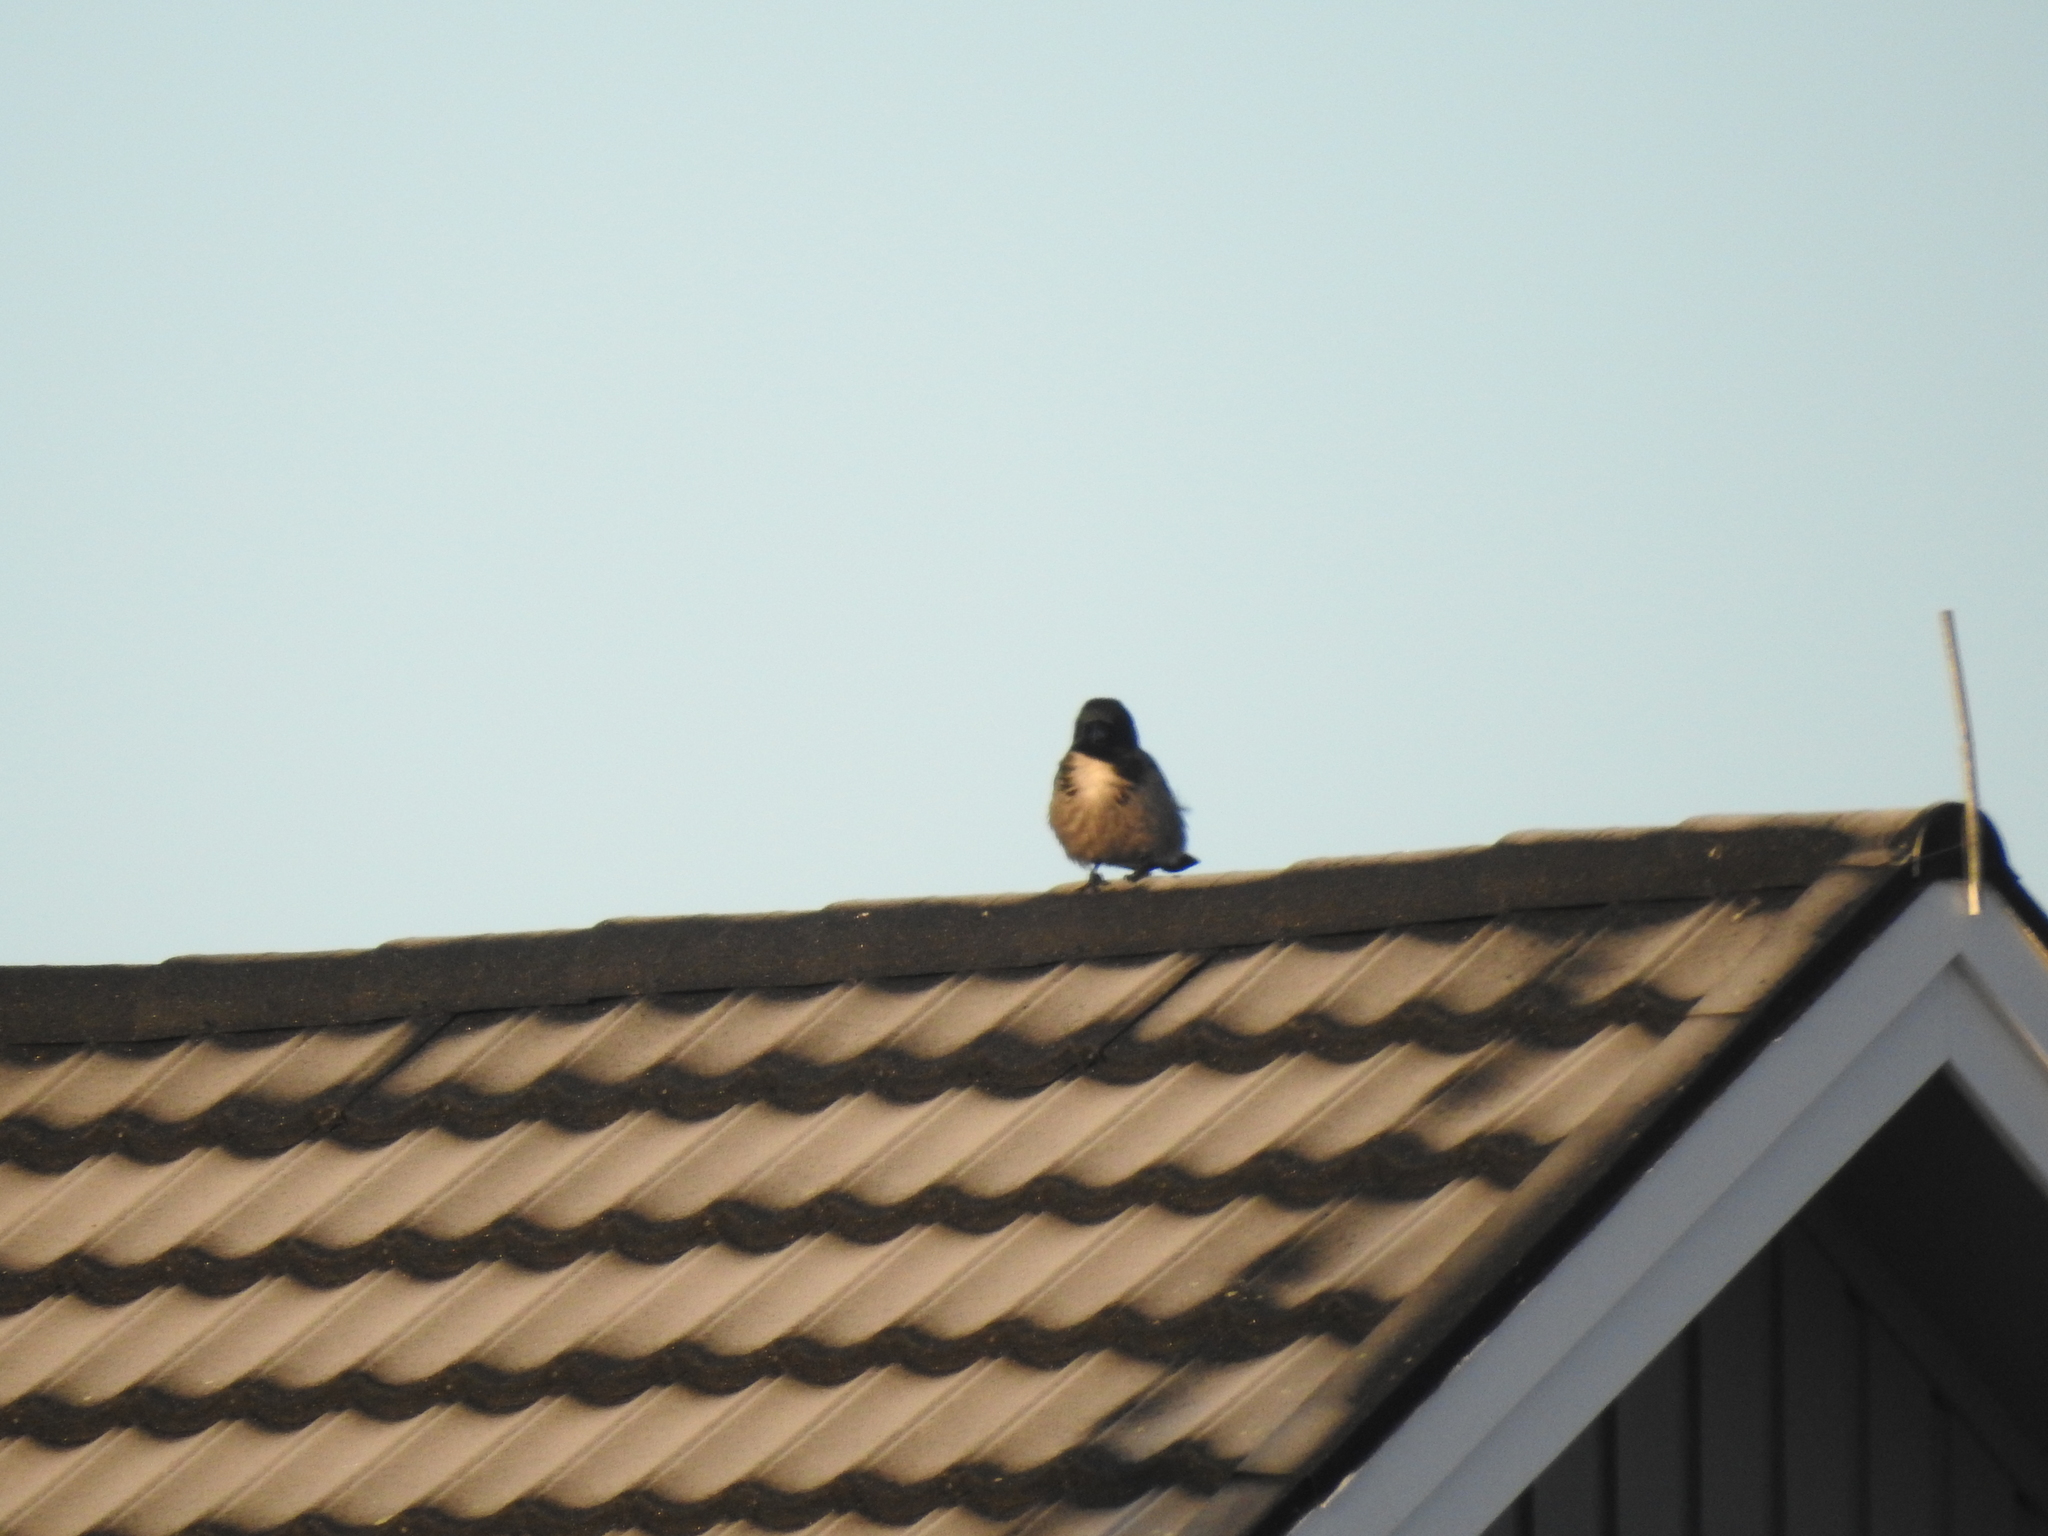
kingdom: Animalia
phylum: Chordata
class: Aves
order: Passeriformes
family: Corvidae
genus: Corvus
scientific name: Corvus cornix
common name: Hooded crow
